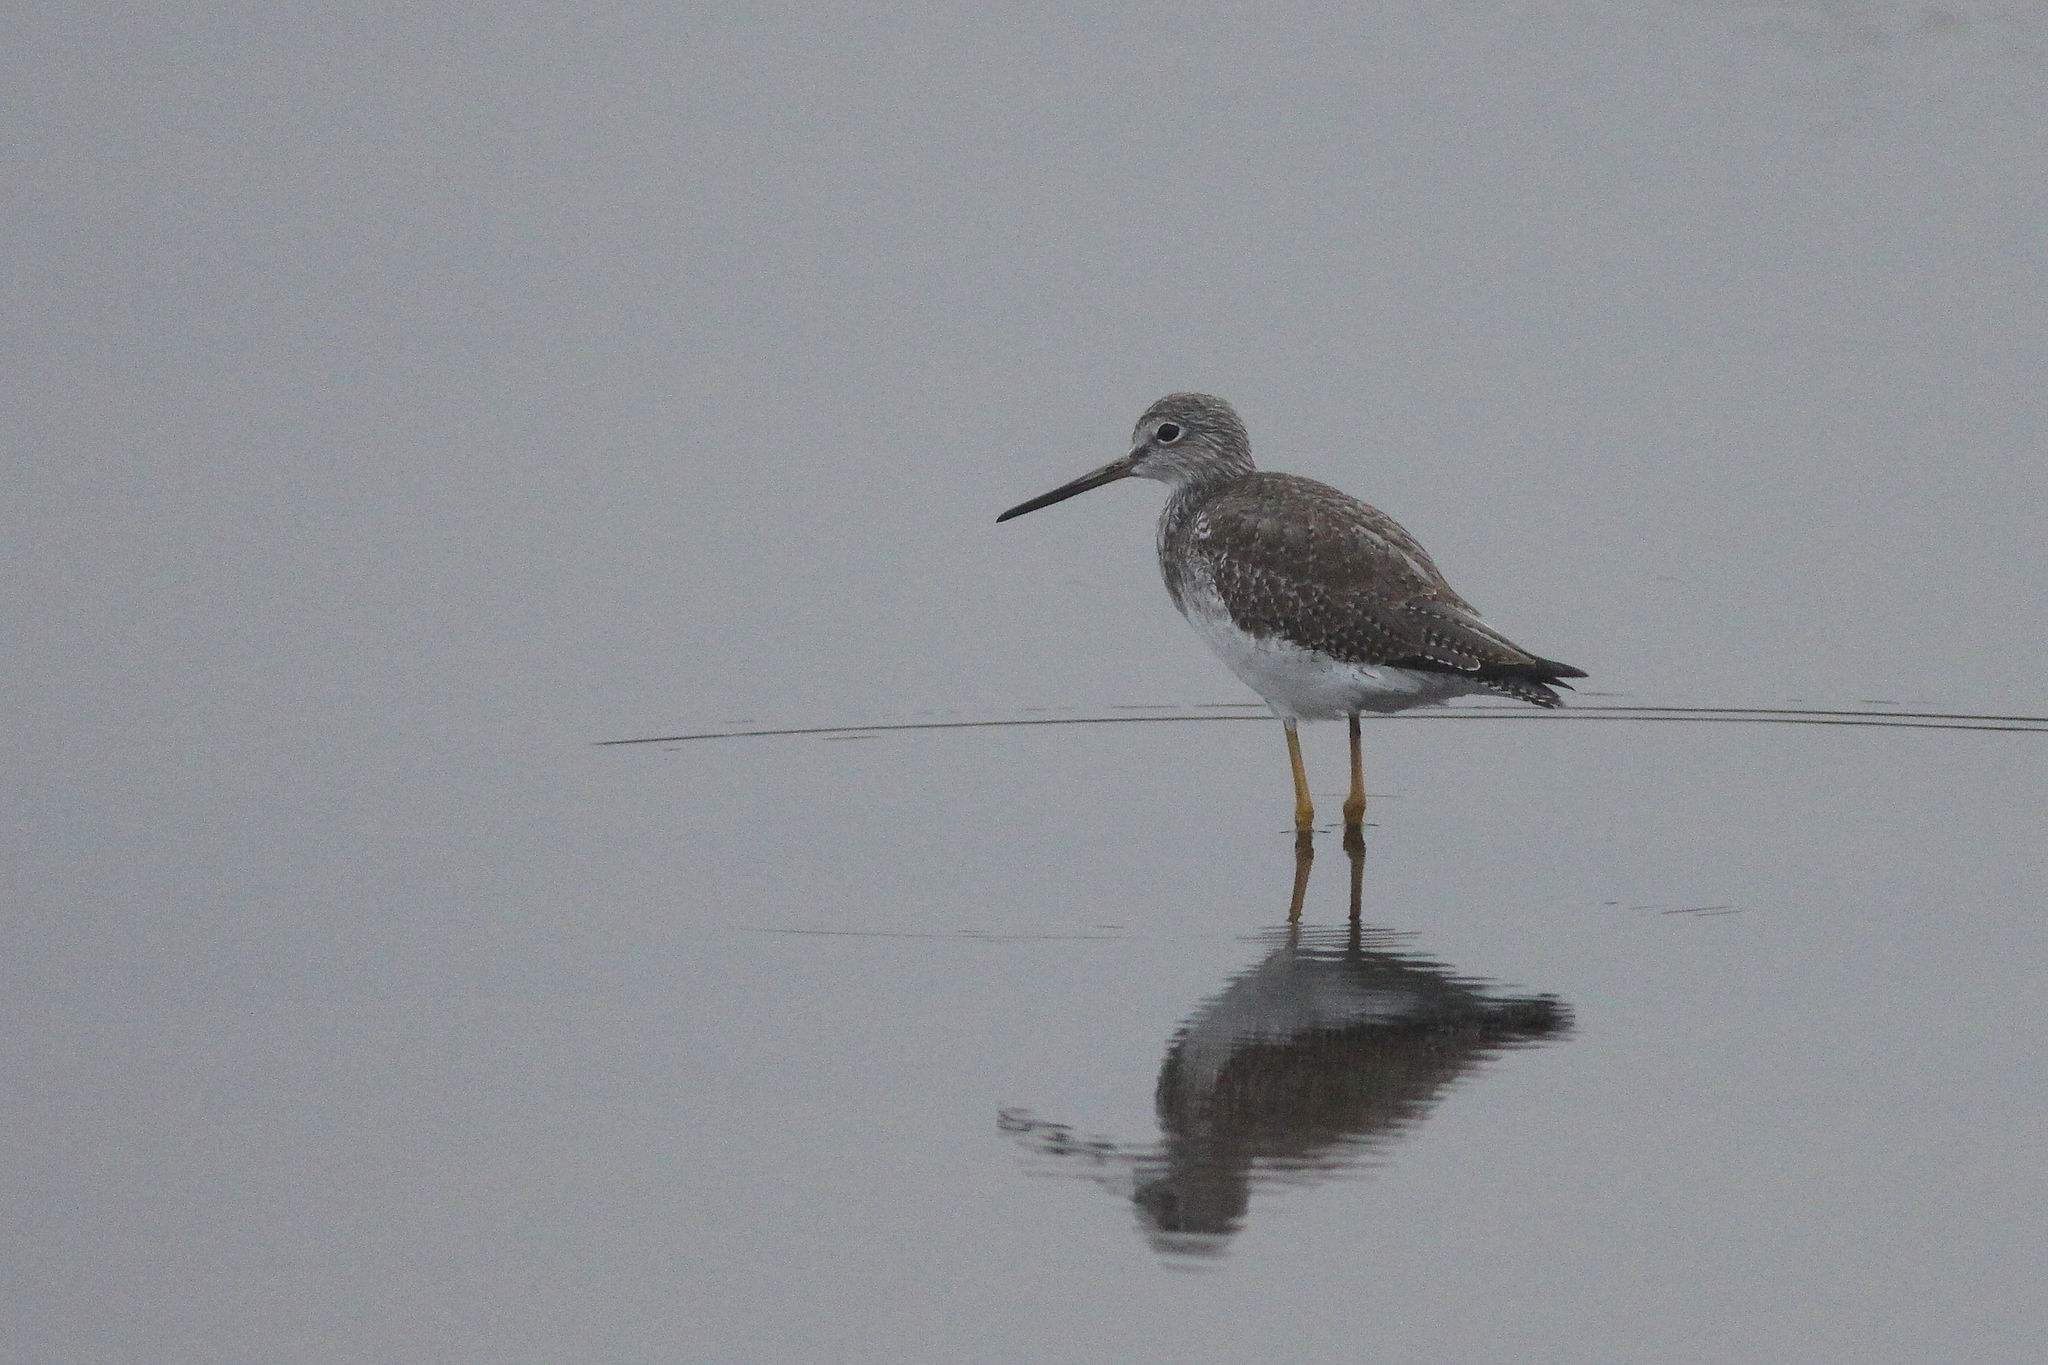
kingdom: Animalia
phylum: Chordata
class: Aves
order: Charadriiformes
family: Scolopacidae
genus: Tringa
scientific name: Tringa melanoleuca
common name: Greater yellowlegs
